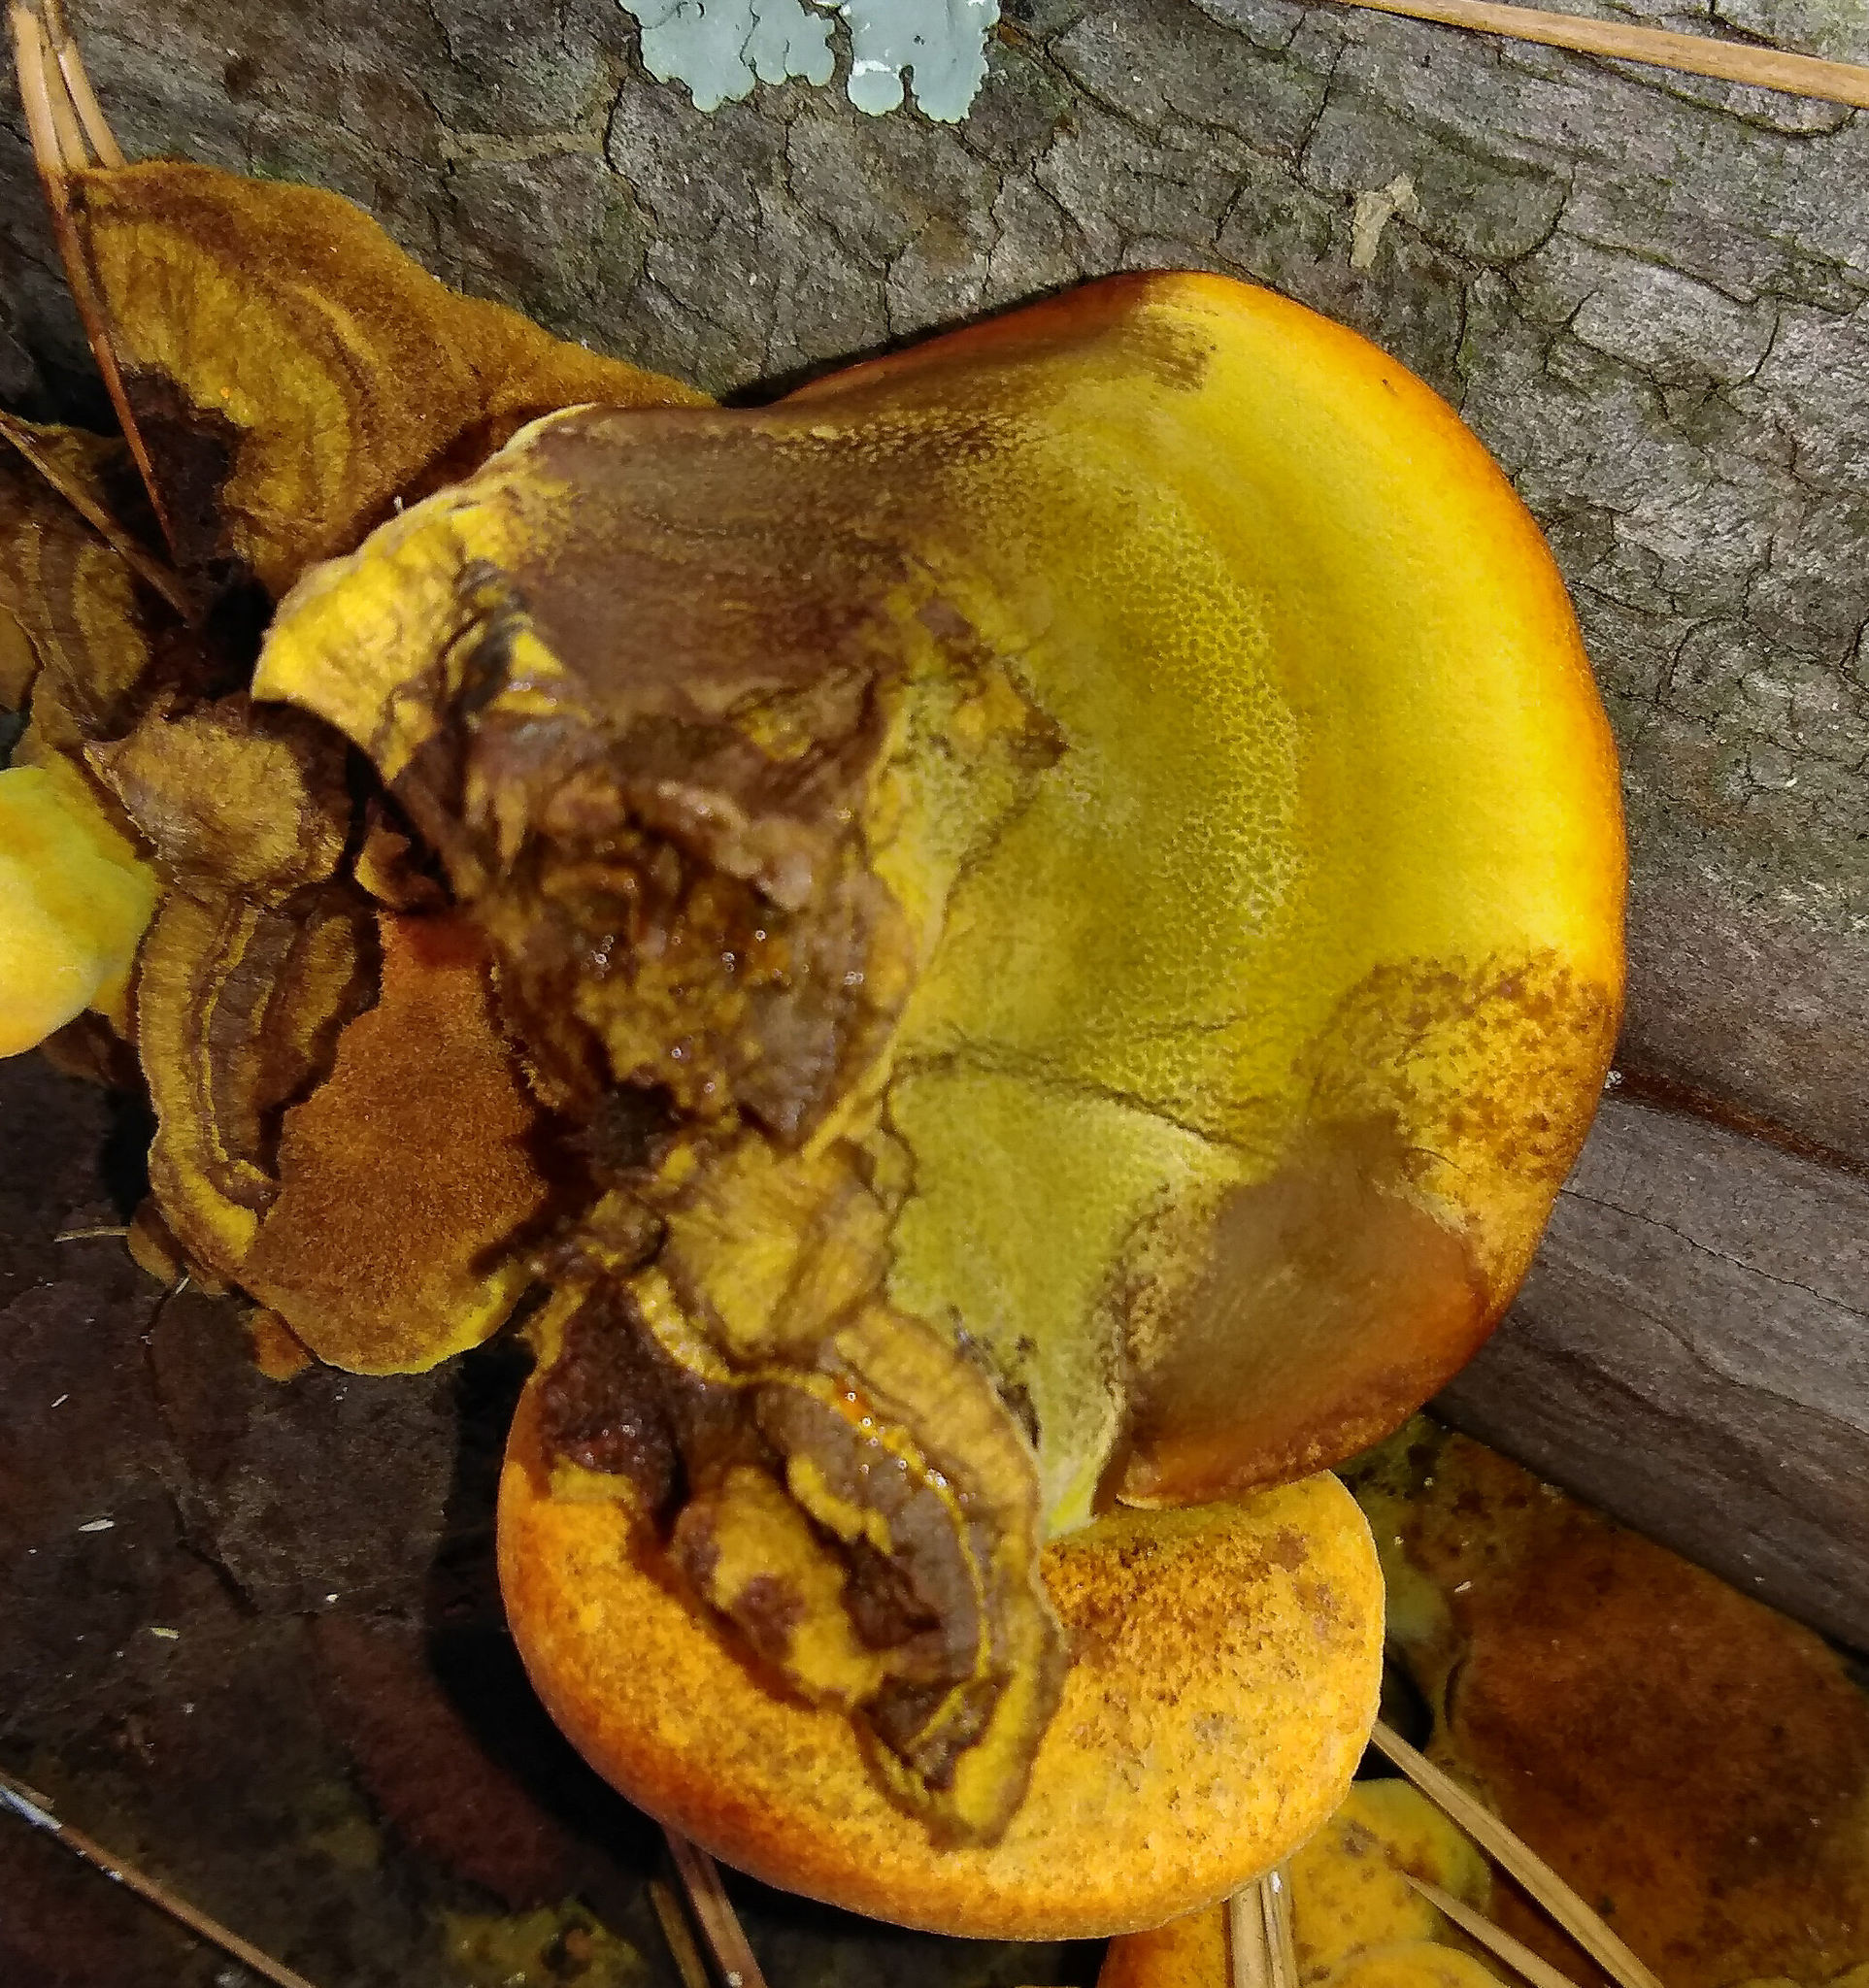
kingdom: Fungi
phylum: Basidiomycota
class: Agaricomycetes
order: Polyporales
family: Laetiporaceae
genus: Phaeolus
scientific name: Phaeolus schweinitzii
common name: Dyer's mazegill
